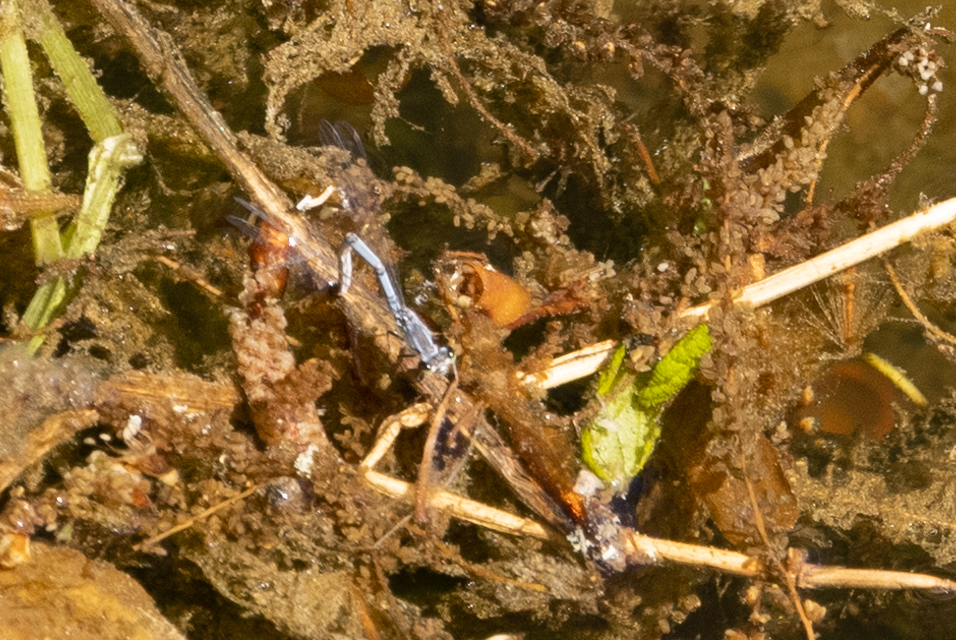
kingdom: Animalia
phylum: Arthropoda
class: Insecta
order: Odonata
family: Coenagrionidae
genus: Ischnura
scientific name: Ischnura posita
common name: Fragile forktail
